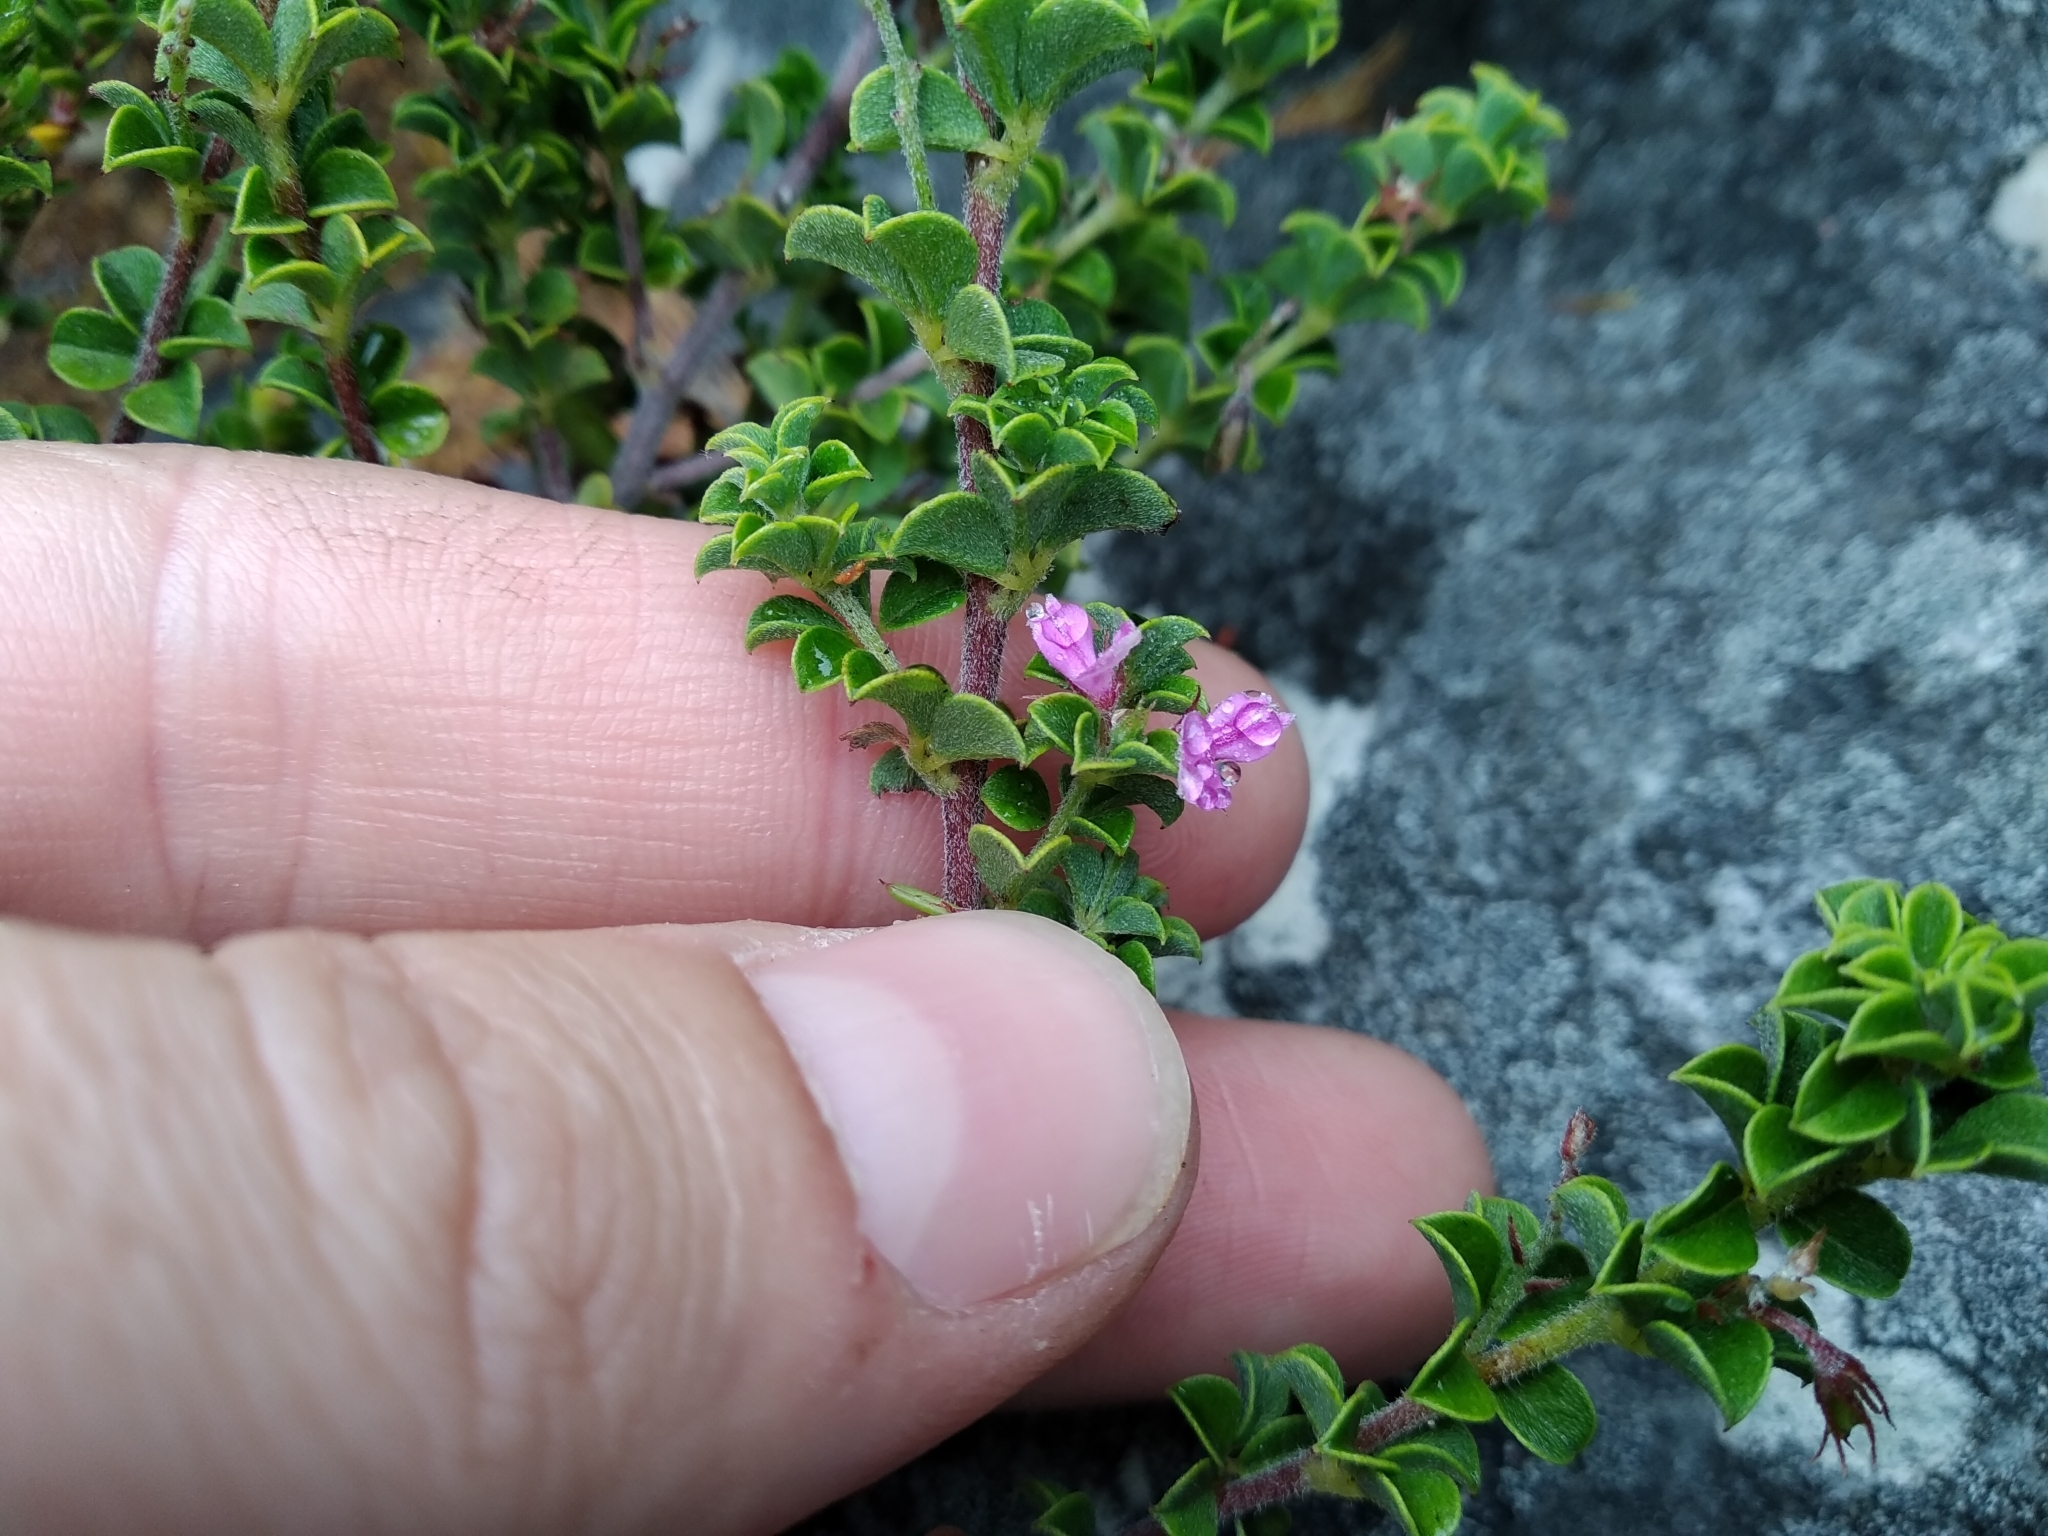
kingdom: Plantae
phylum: Tracheophyta
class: Magnoliopsida
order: Fabales
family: Fabaceae
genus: Indigofera
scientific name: Indigofera candolleana
